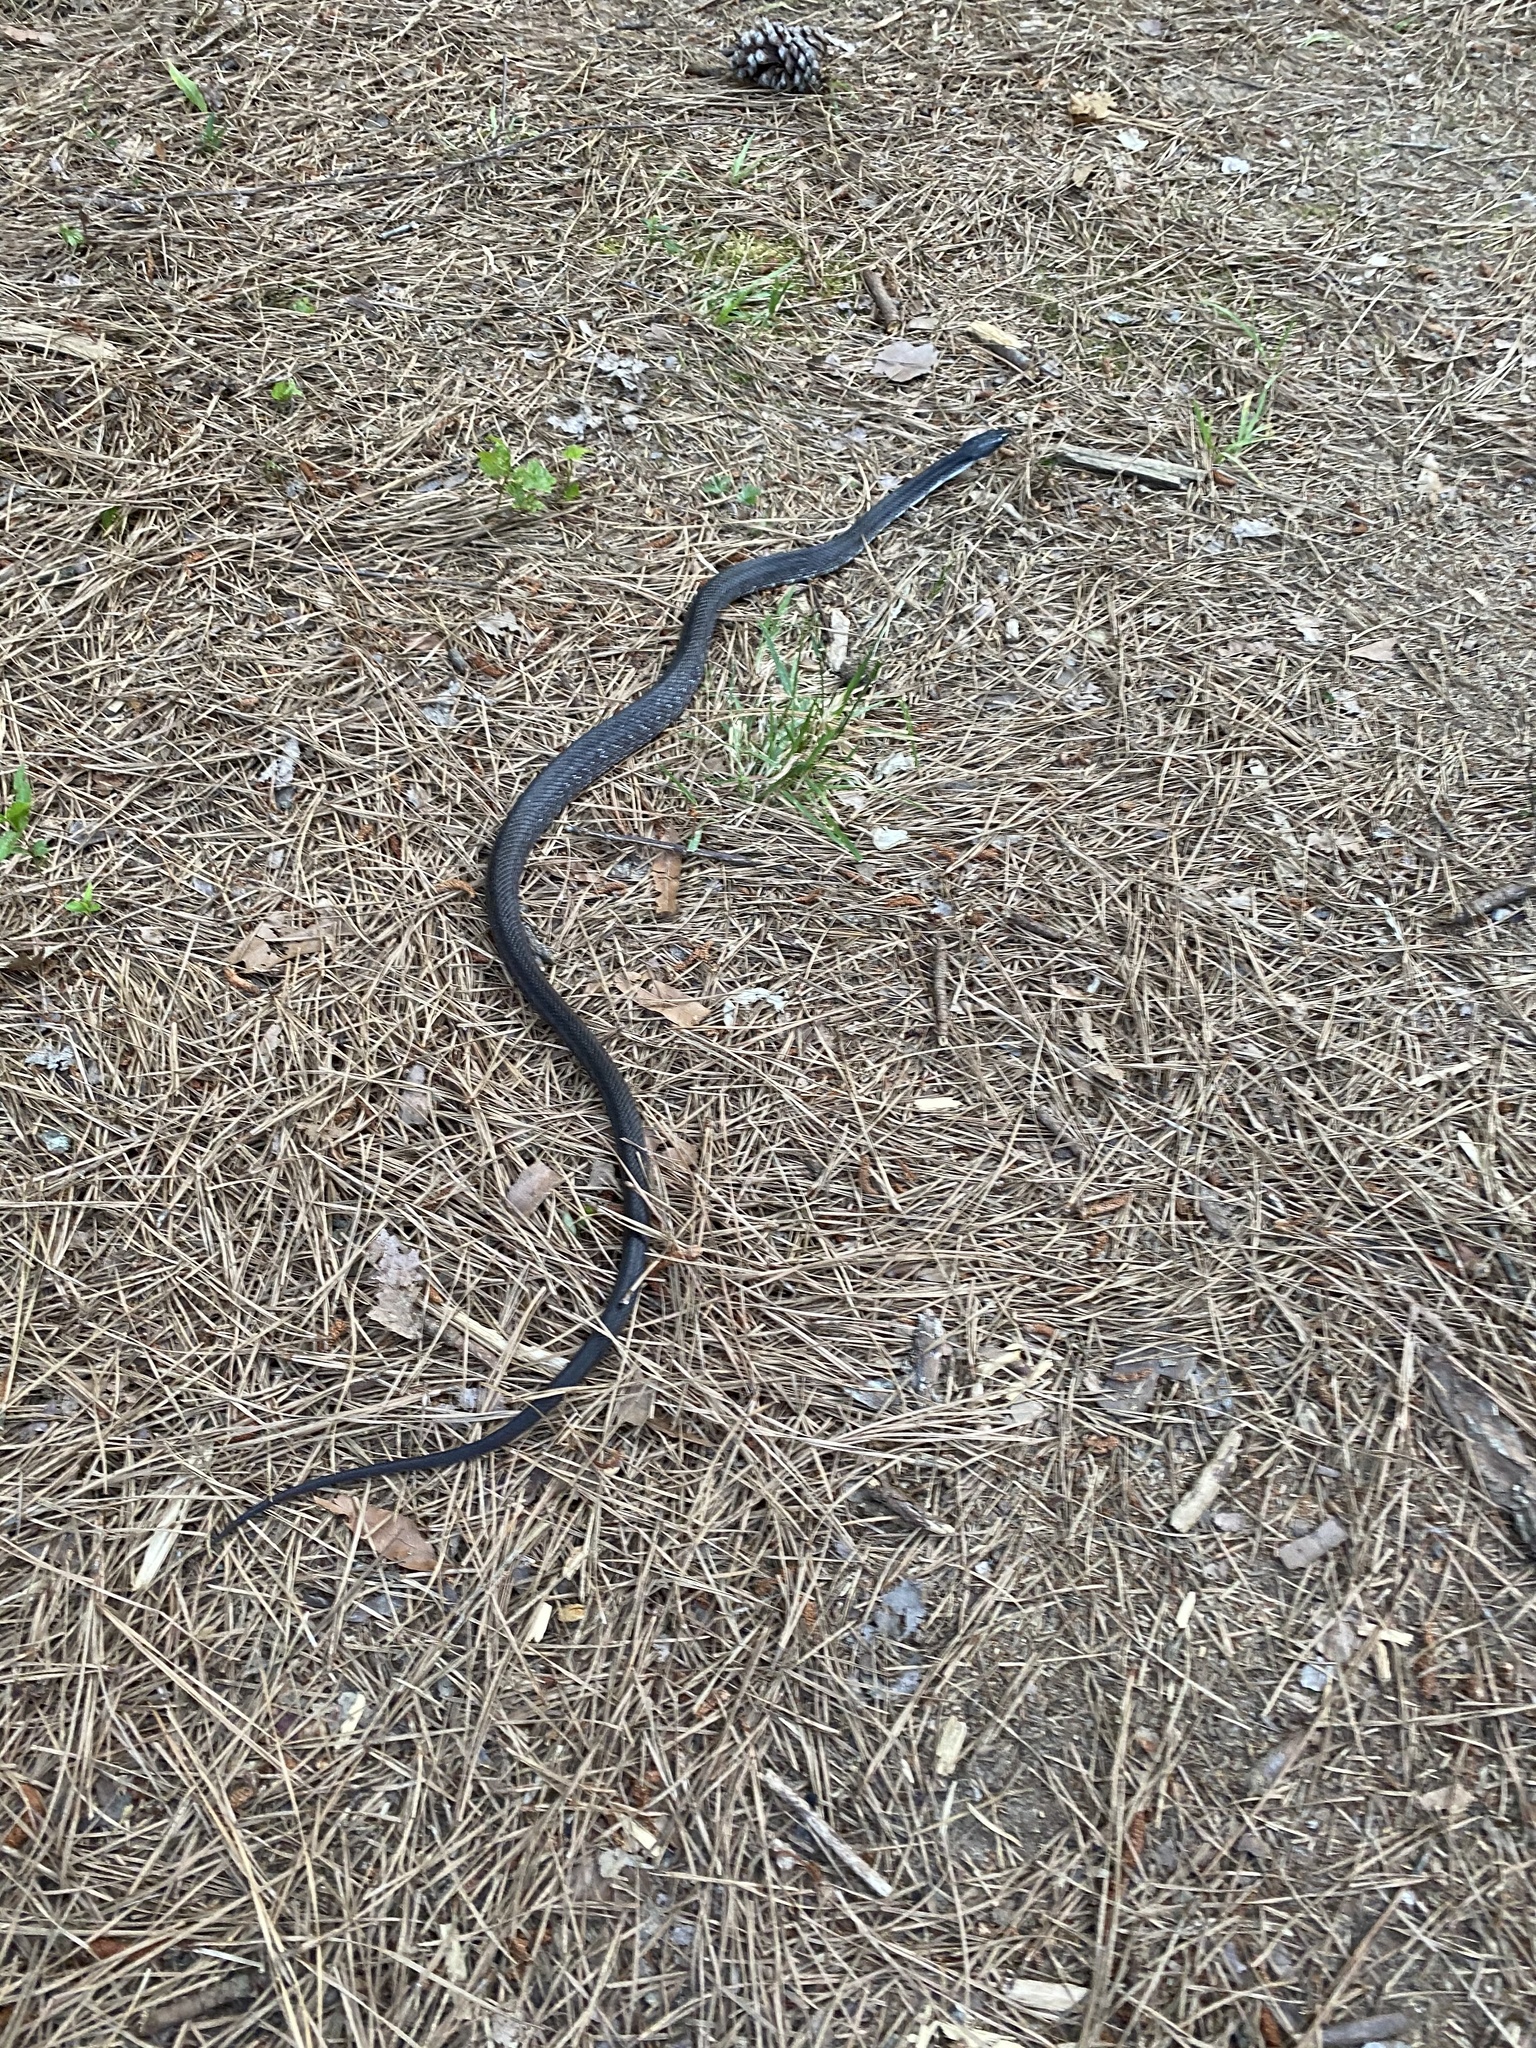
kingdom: Animalia
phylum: Chordata
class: Squamata
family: Colubridae
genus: Pantherophis
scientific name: Pantherophis alleghaniensis
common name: Eastern rat snake
